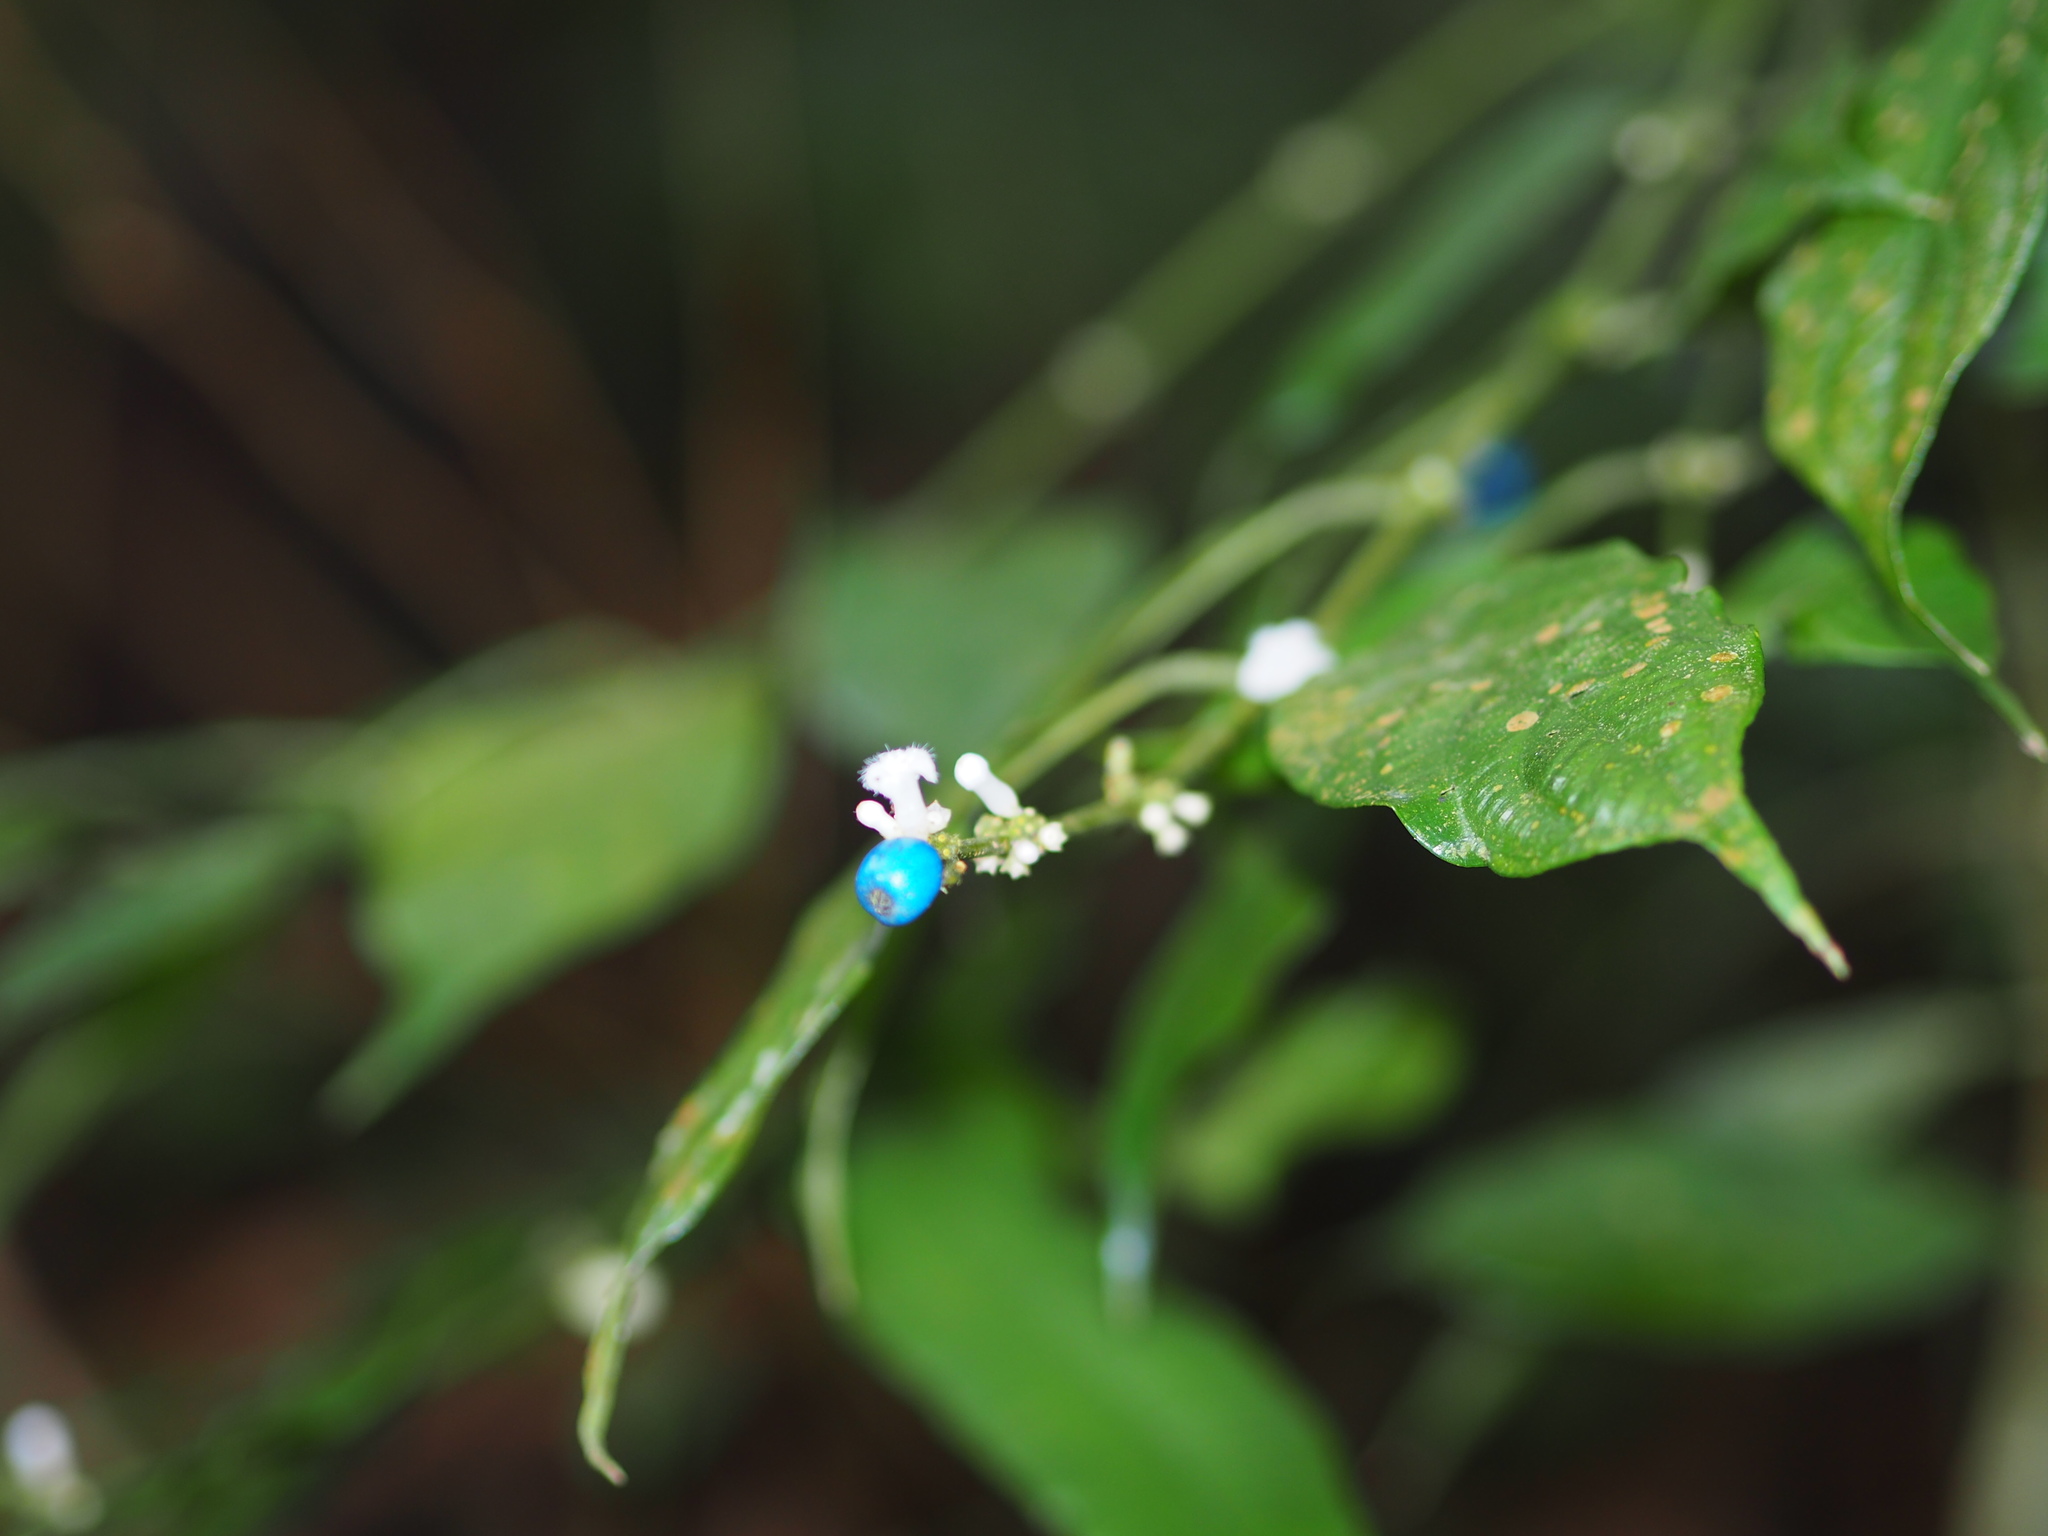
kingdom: Plantae
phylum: Tracheophyta
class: Magnoliopsida
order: Gentianales
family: Rubiaceae
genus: Lasianthus
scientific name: Lasianthus fordii
